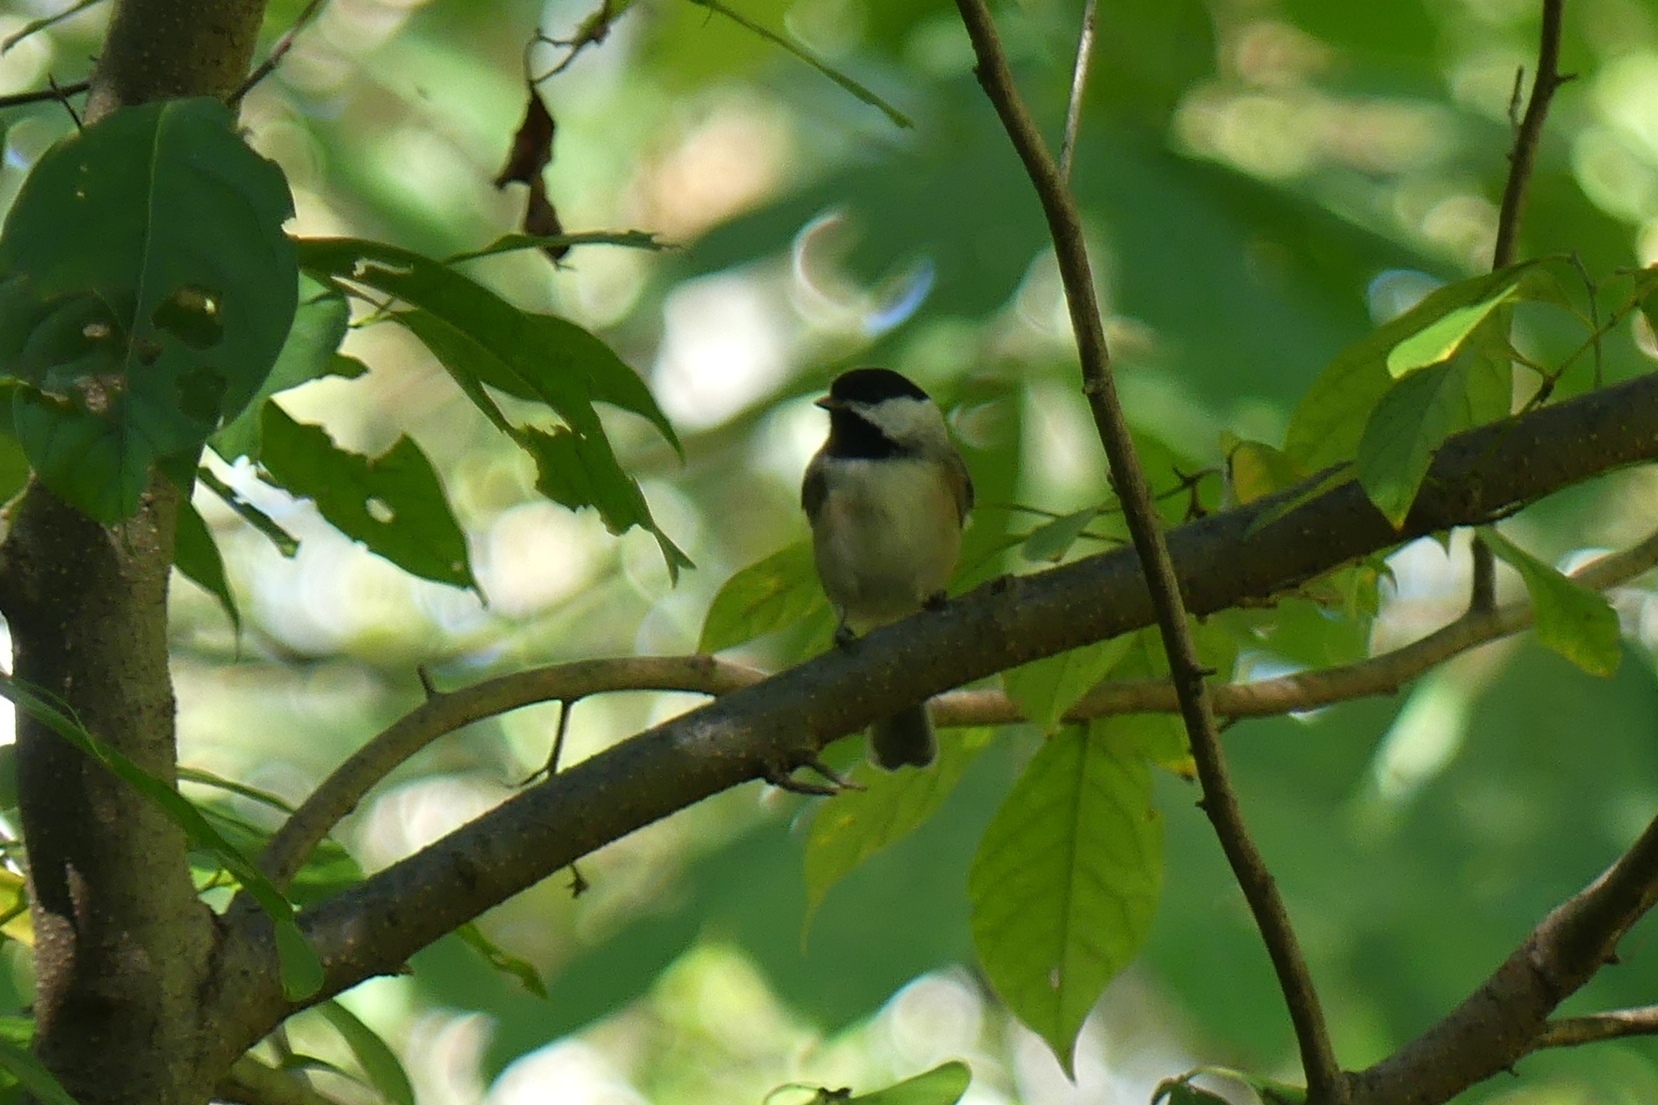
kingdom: Animalia
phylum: Chordata
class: Aves
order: Passeriformes
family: Paridae
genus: Poecile
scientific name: Poecile
